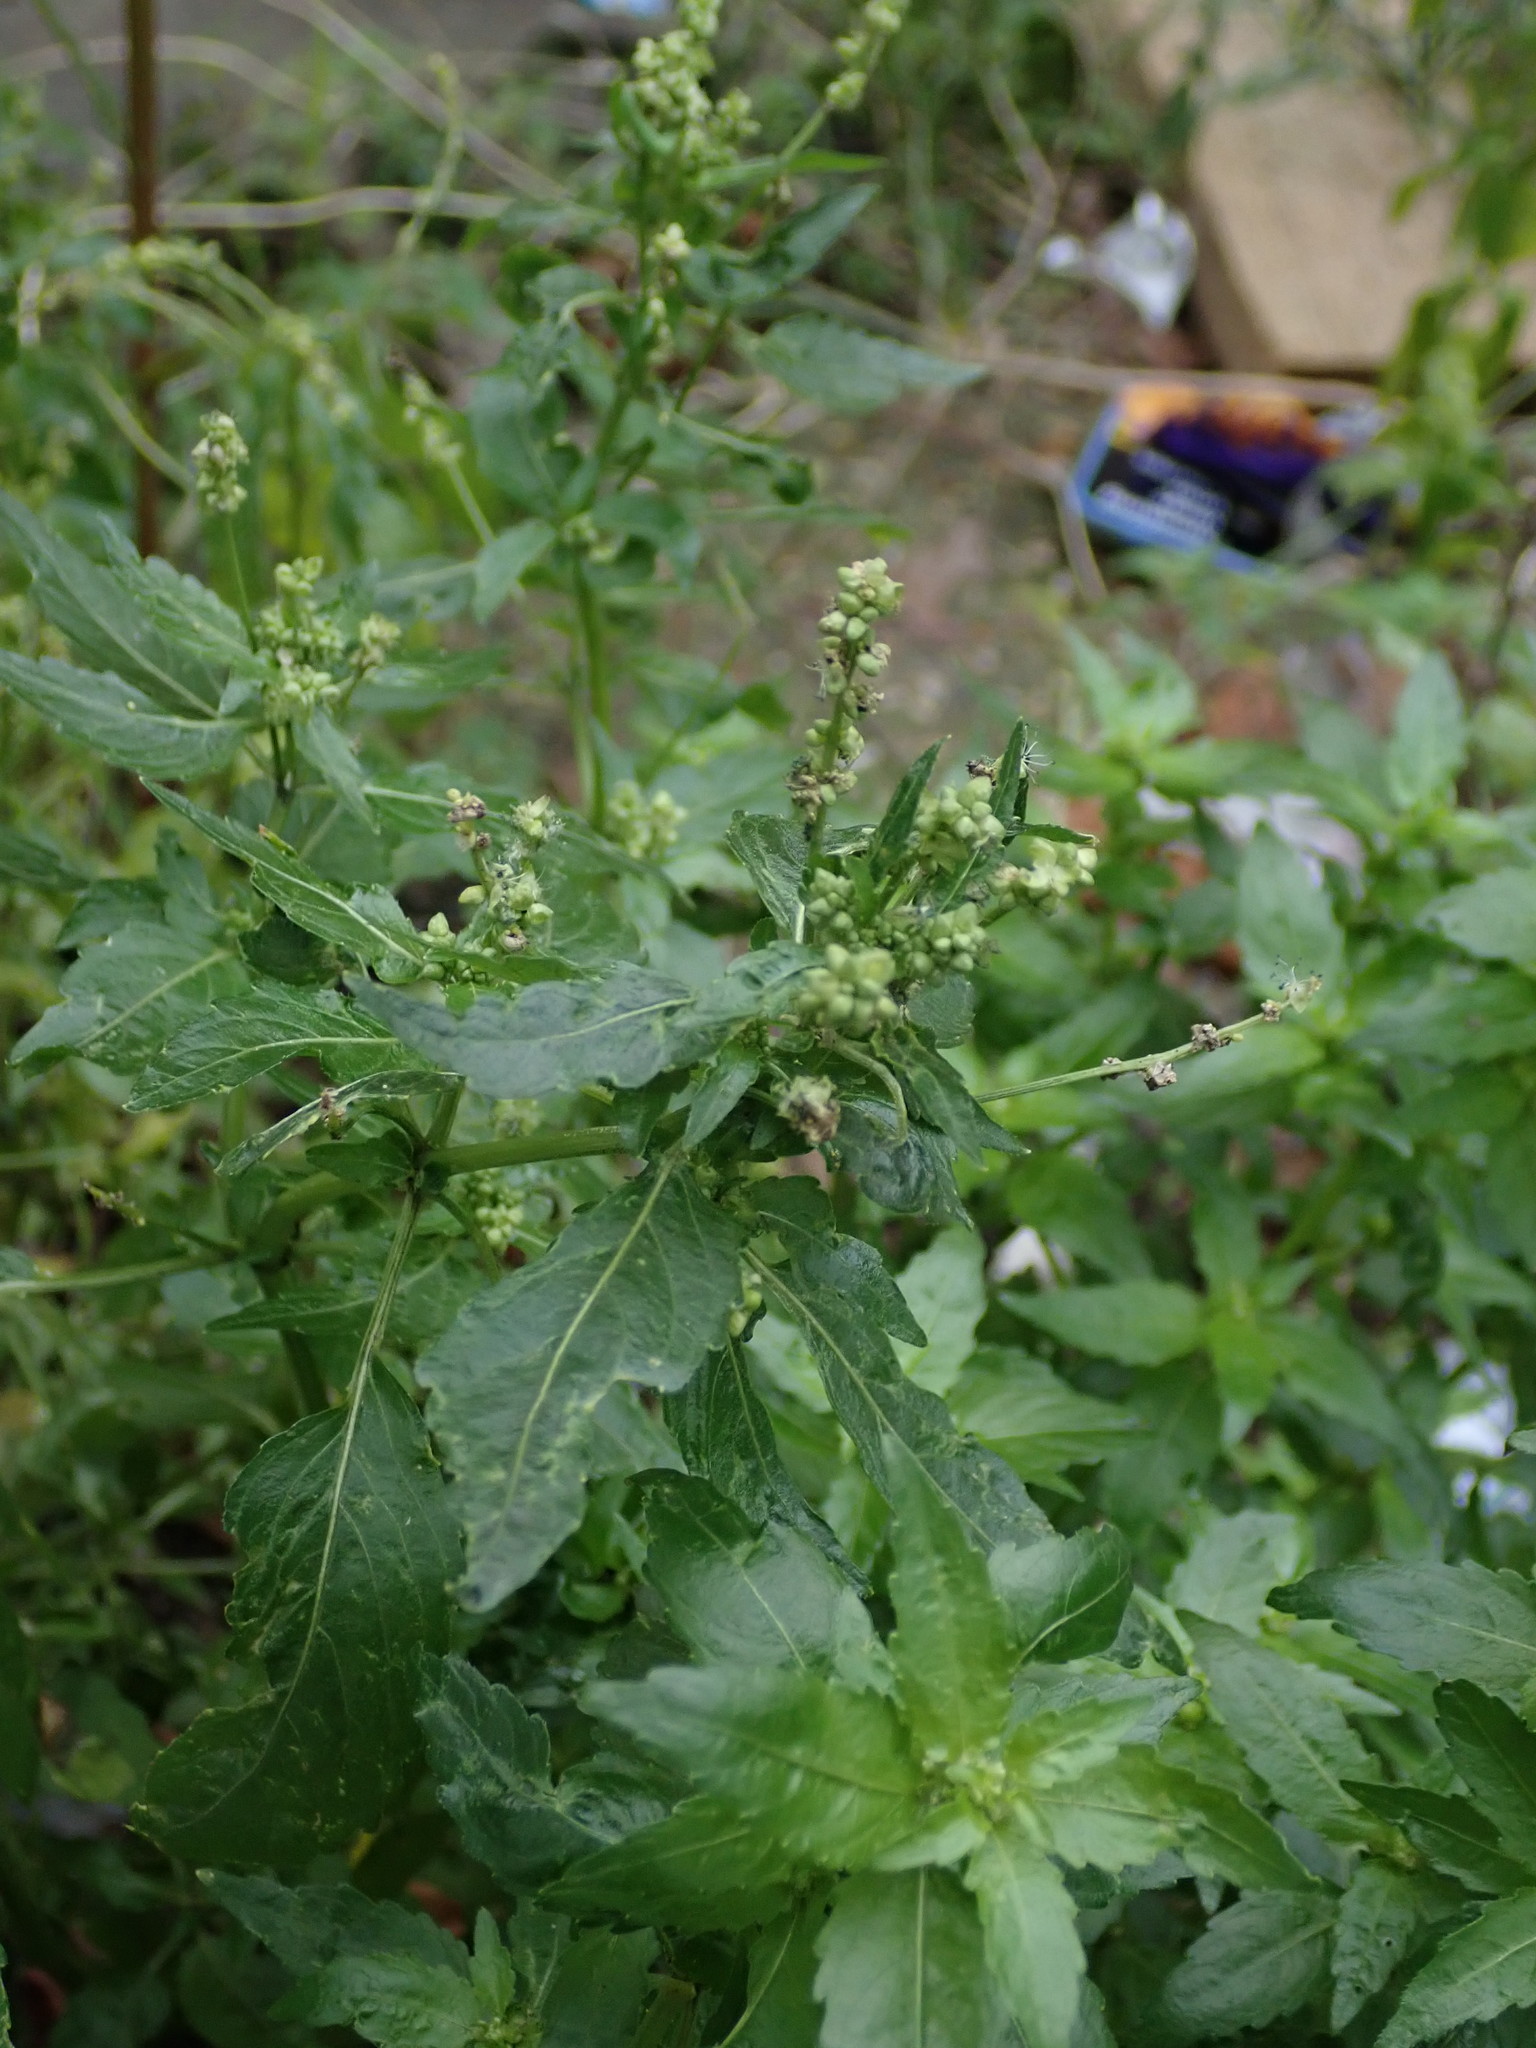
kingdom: Plantae
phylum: Tracheophyta
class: Magnoliopsida
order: Malpighiales
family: Euphorbiaceae
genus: Mercurialis
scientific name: Mercurialis annua
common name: Annual mercury
